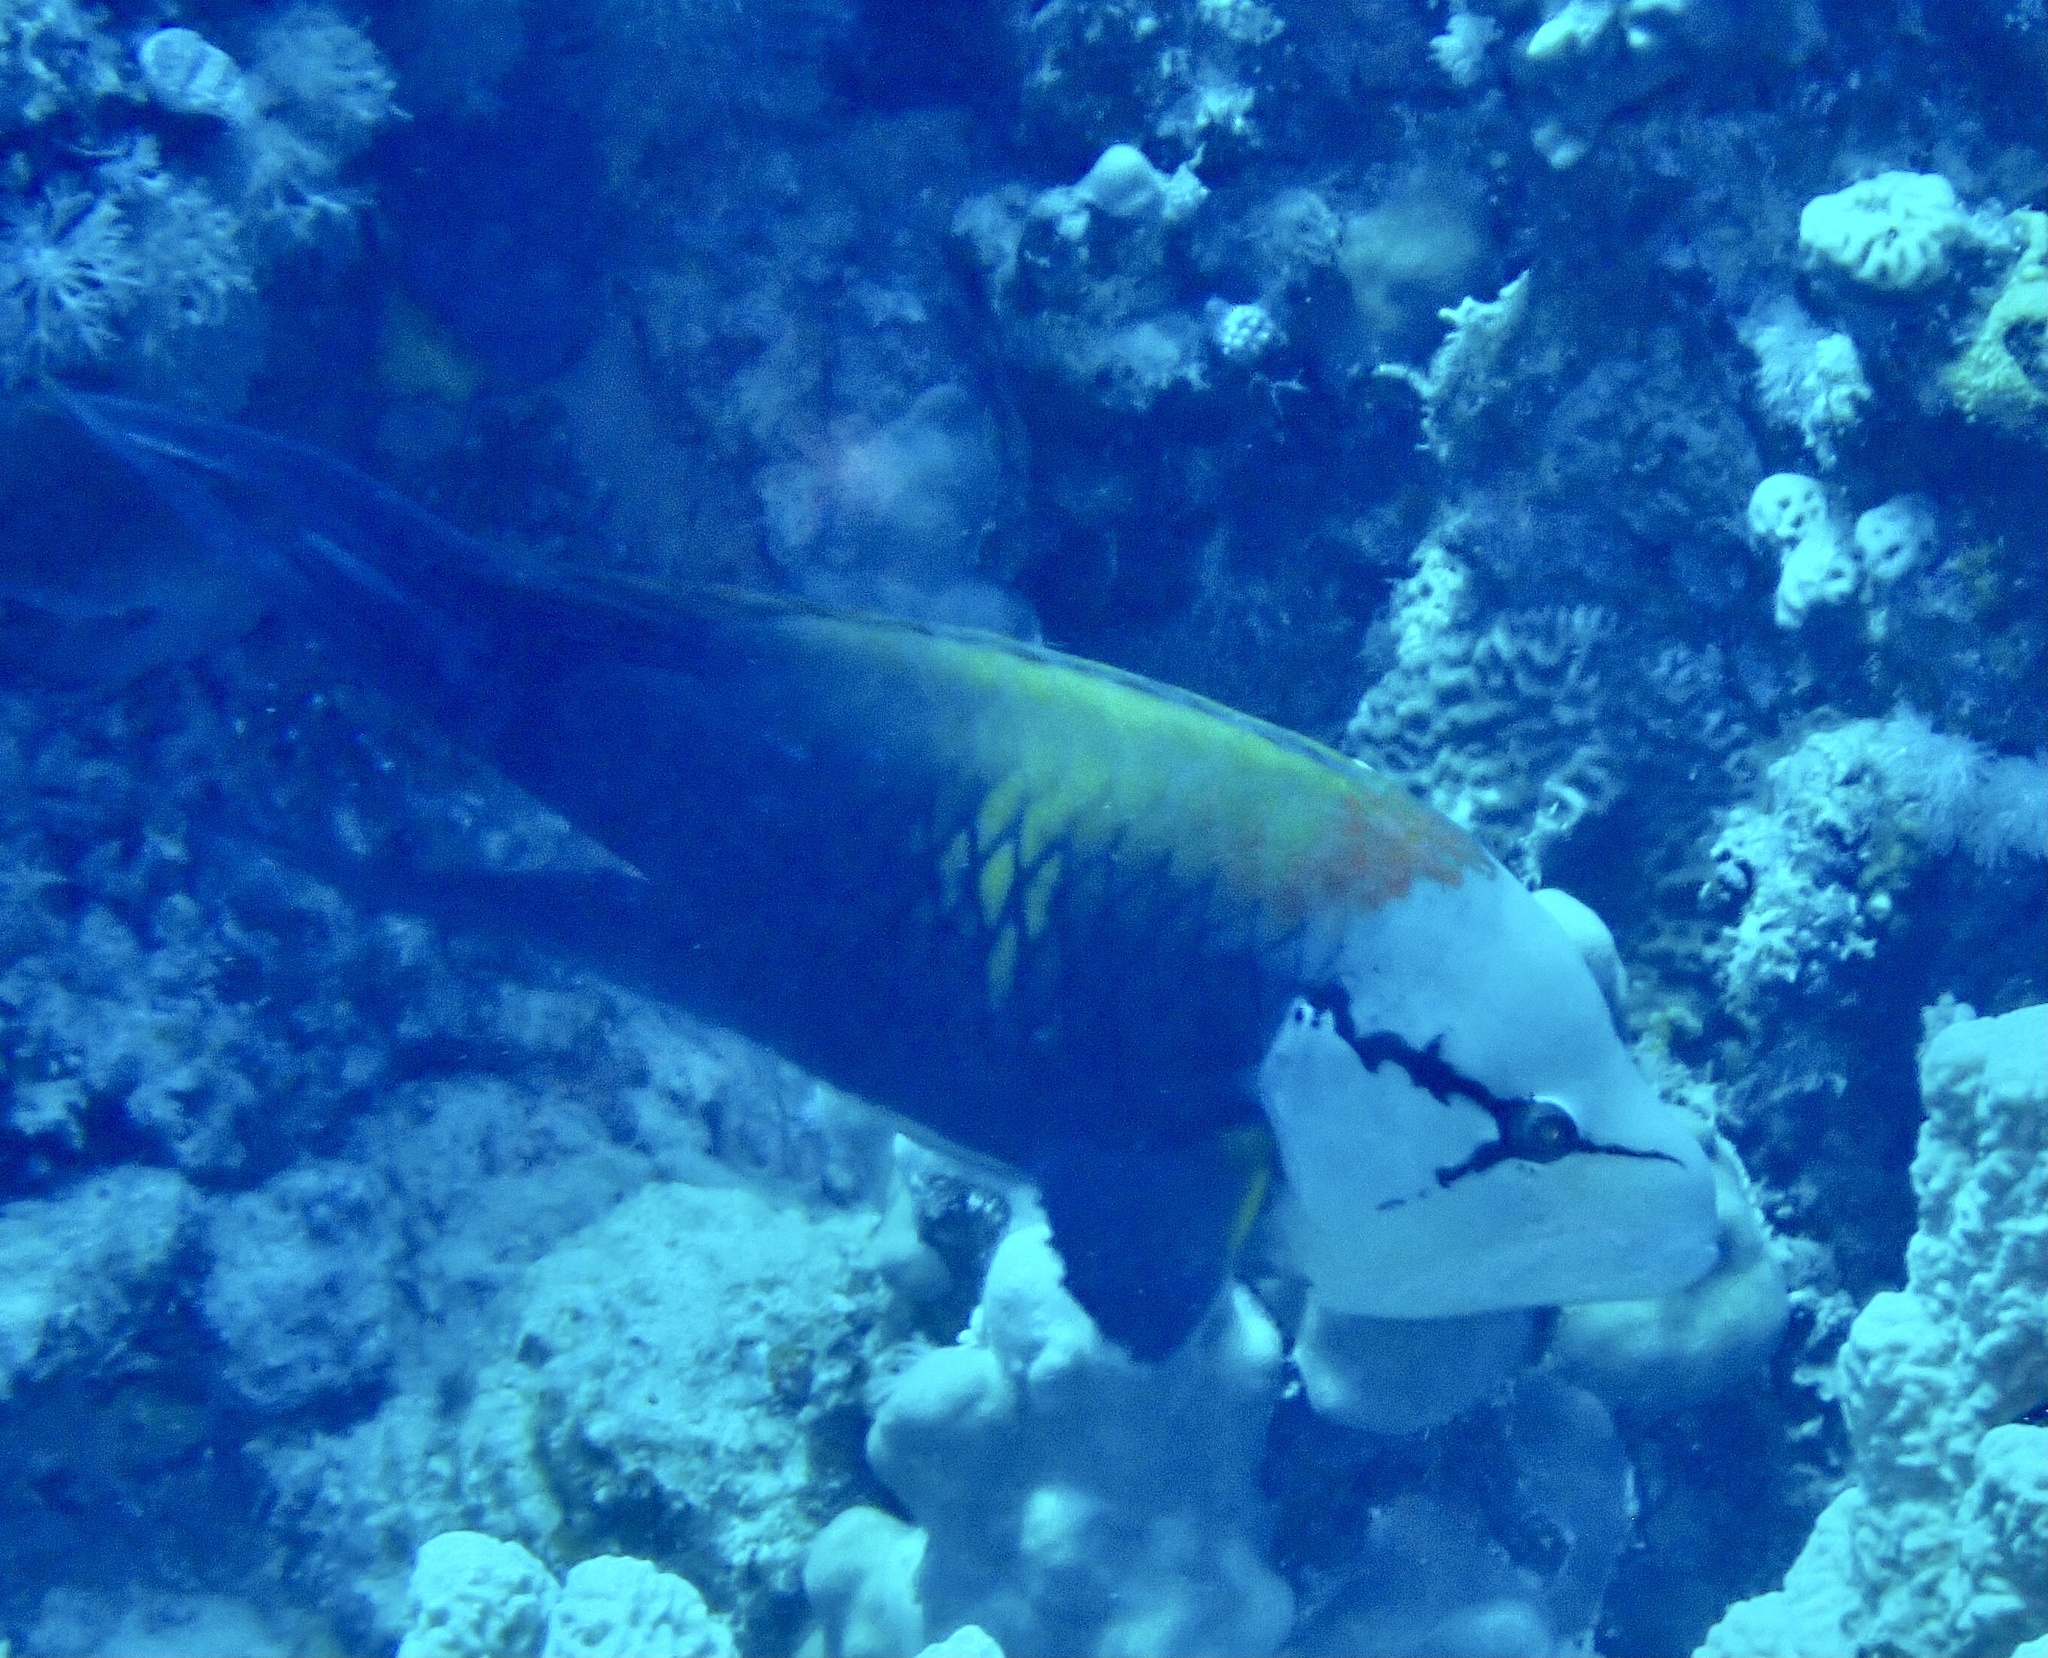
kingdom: Animalia
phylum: Chordata
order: Perciformes
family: Labridae
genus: Epibulus
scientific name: Epibulus insidiator
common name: Slingjaw wrasse
